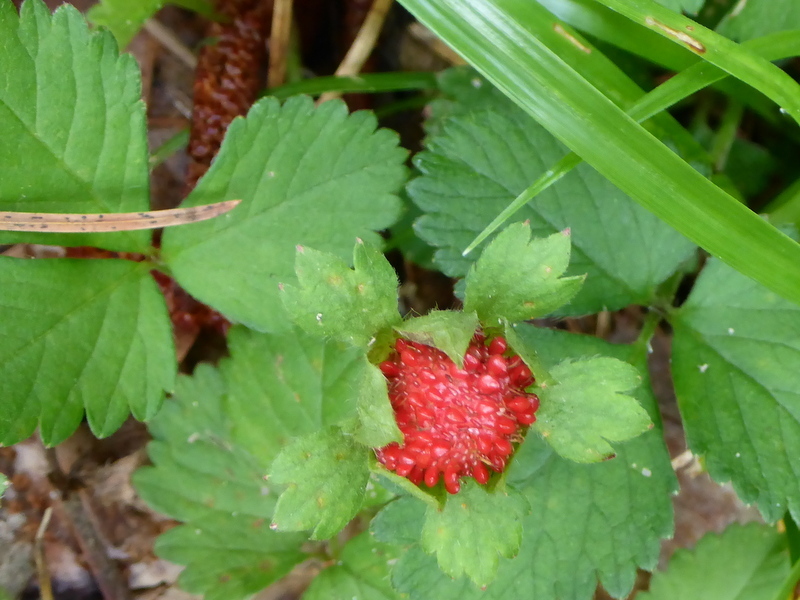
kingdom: Plantae
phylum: Tracheophyta
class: Magnoliopsida
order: Rosales
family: Rosaceae
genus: Potentilla
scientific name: Potentilla indica
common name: Yellow-flowered strawberry
